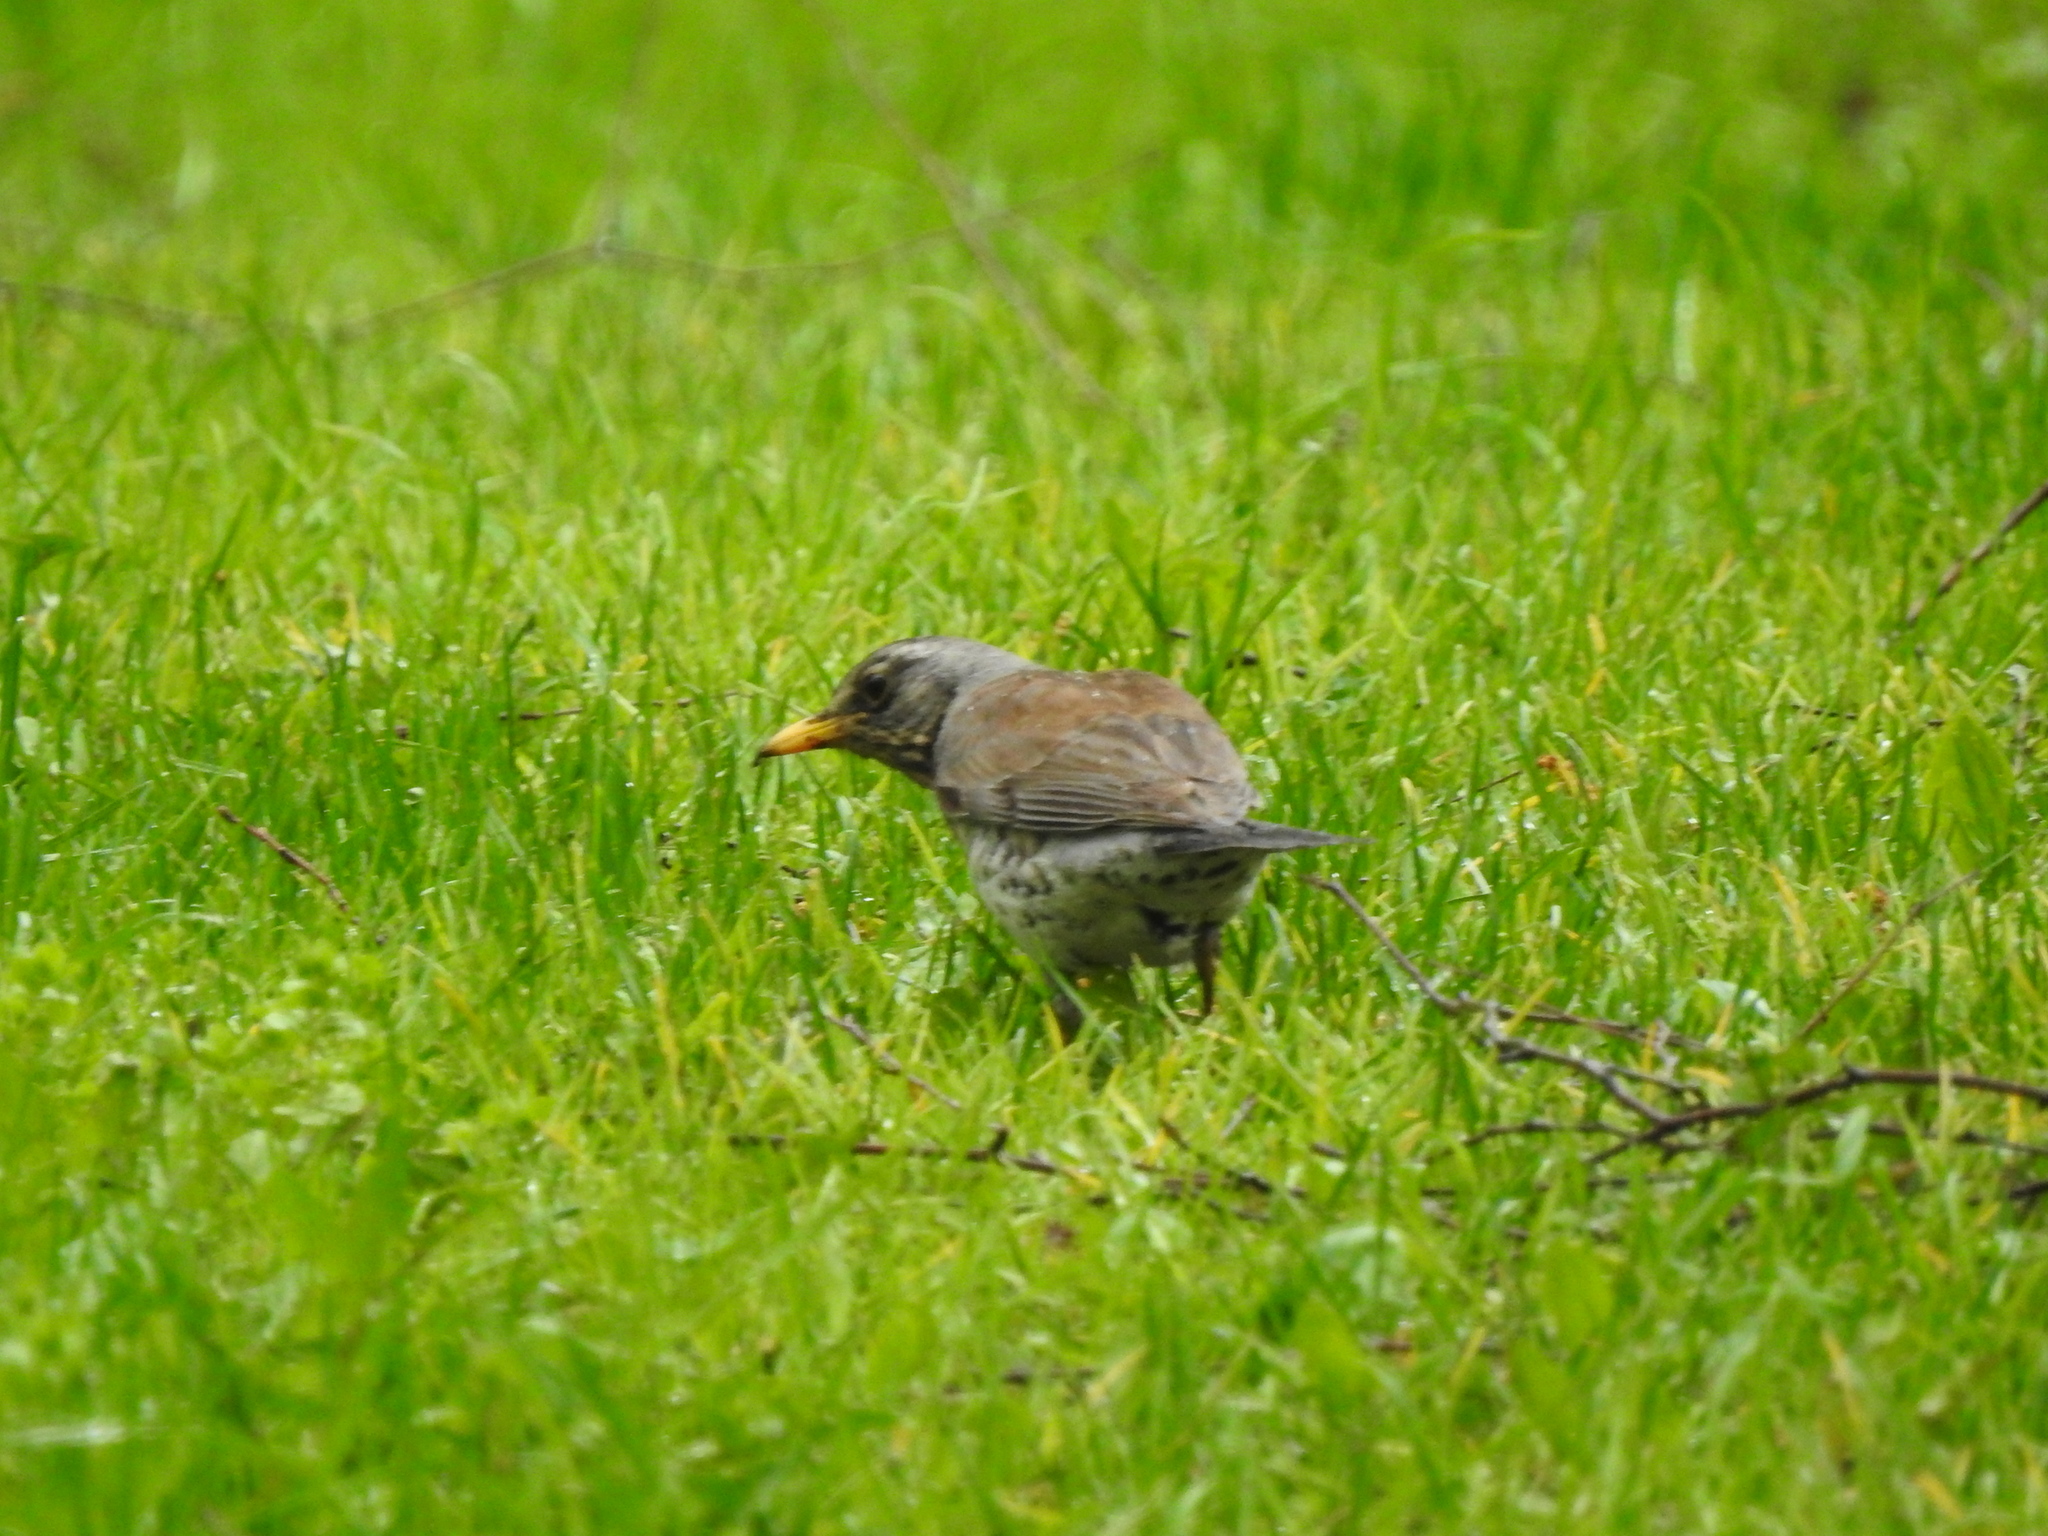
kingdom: Animalia
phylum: Chordata
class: Aves
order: Passeriformes
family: Turdidae
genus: Turdus
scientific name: Turdus pilaris
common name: Fieldfare
